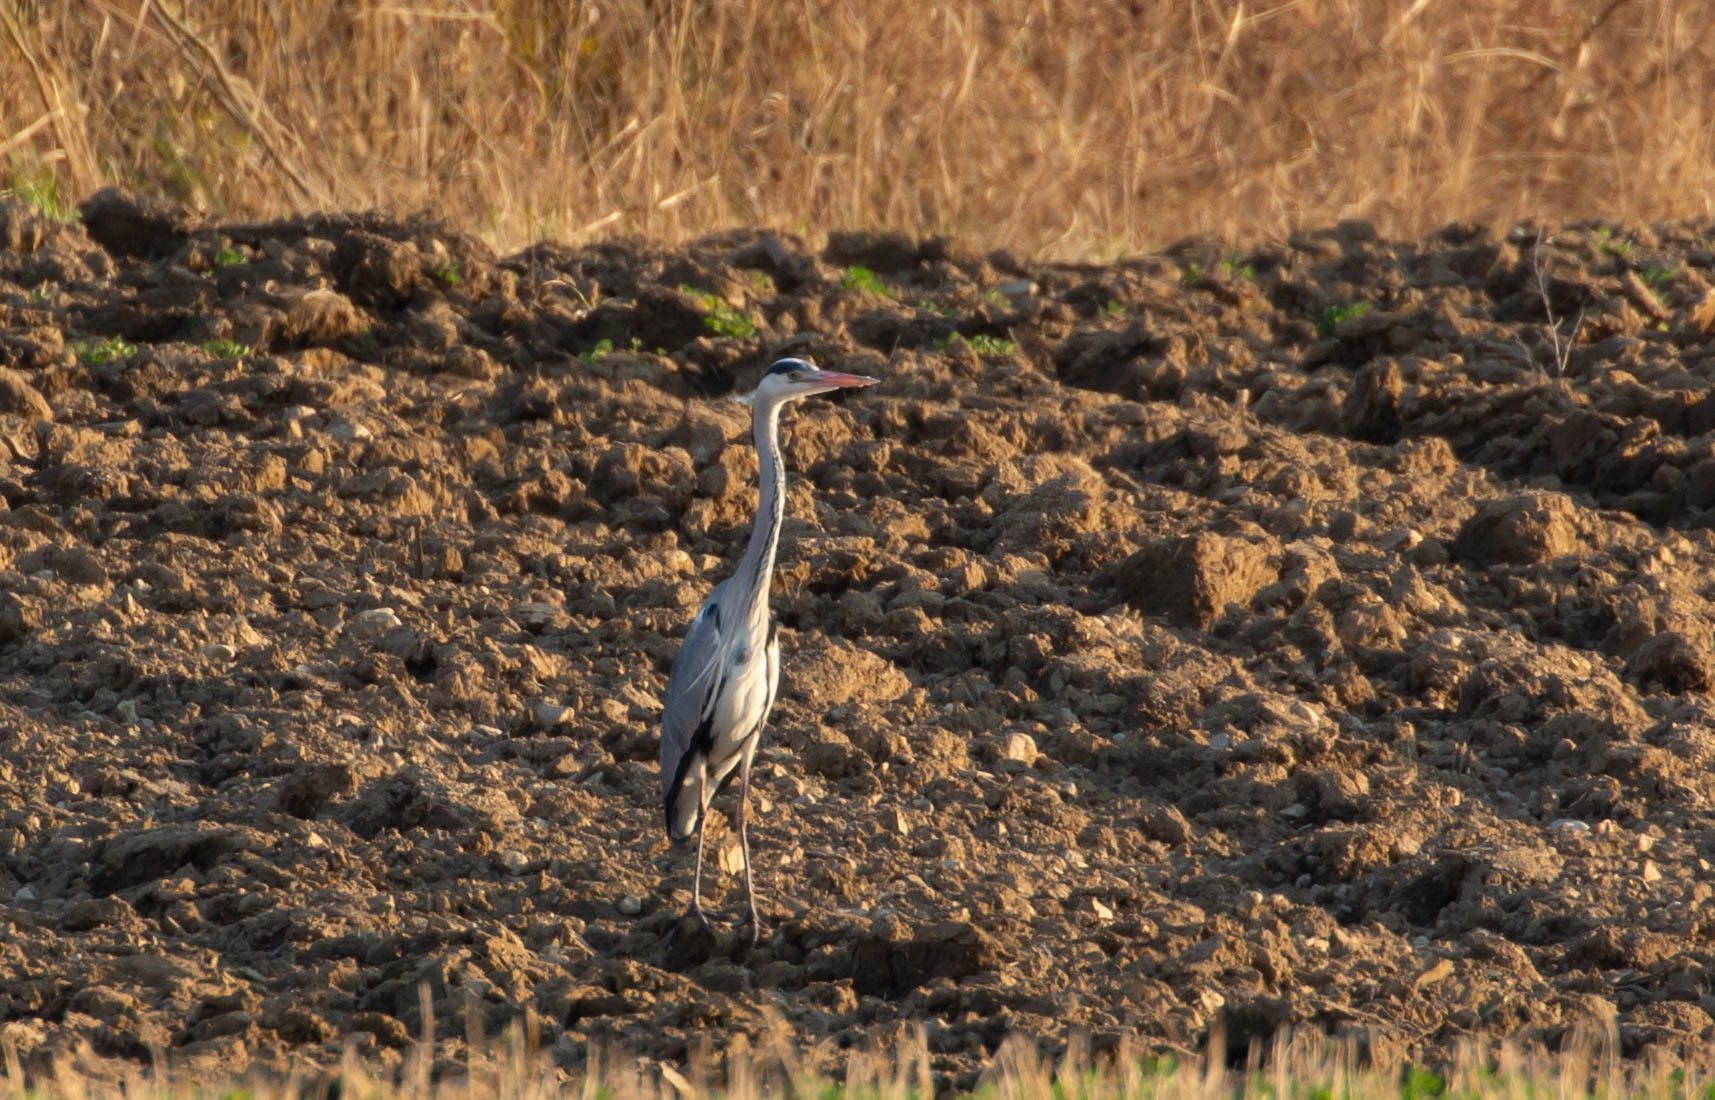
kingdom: Animalia
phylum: Chordata
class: Aves
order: Pelecaniformes
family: Ardeidae
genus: Ardea
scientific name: Ardea cinerea
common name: Grey heron
